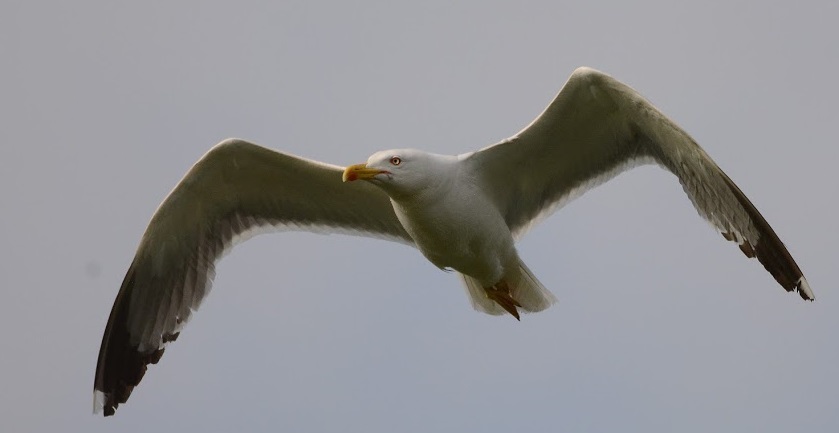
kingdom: Animalia
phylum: Chordata
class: Aves
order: Charadriiformes
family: Laridae
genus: Larus
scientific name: Larus michahellis
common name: Yellow-legged gull
